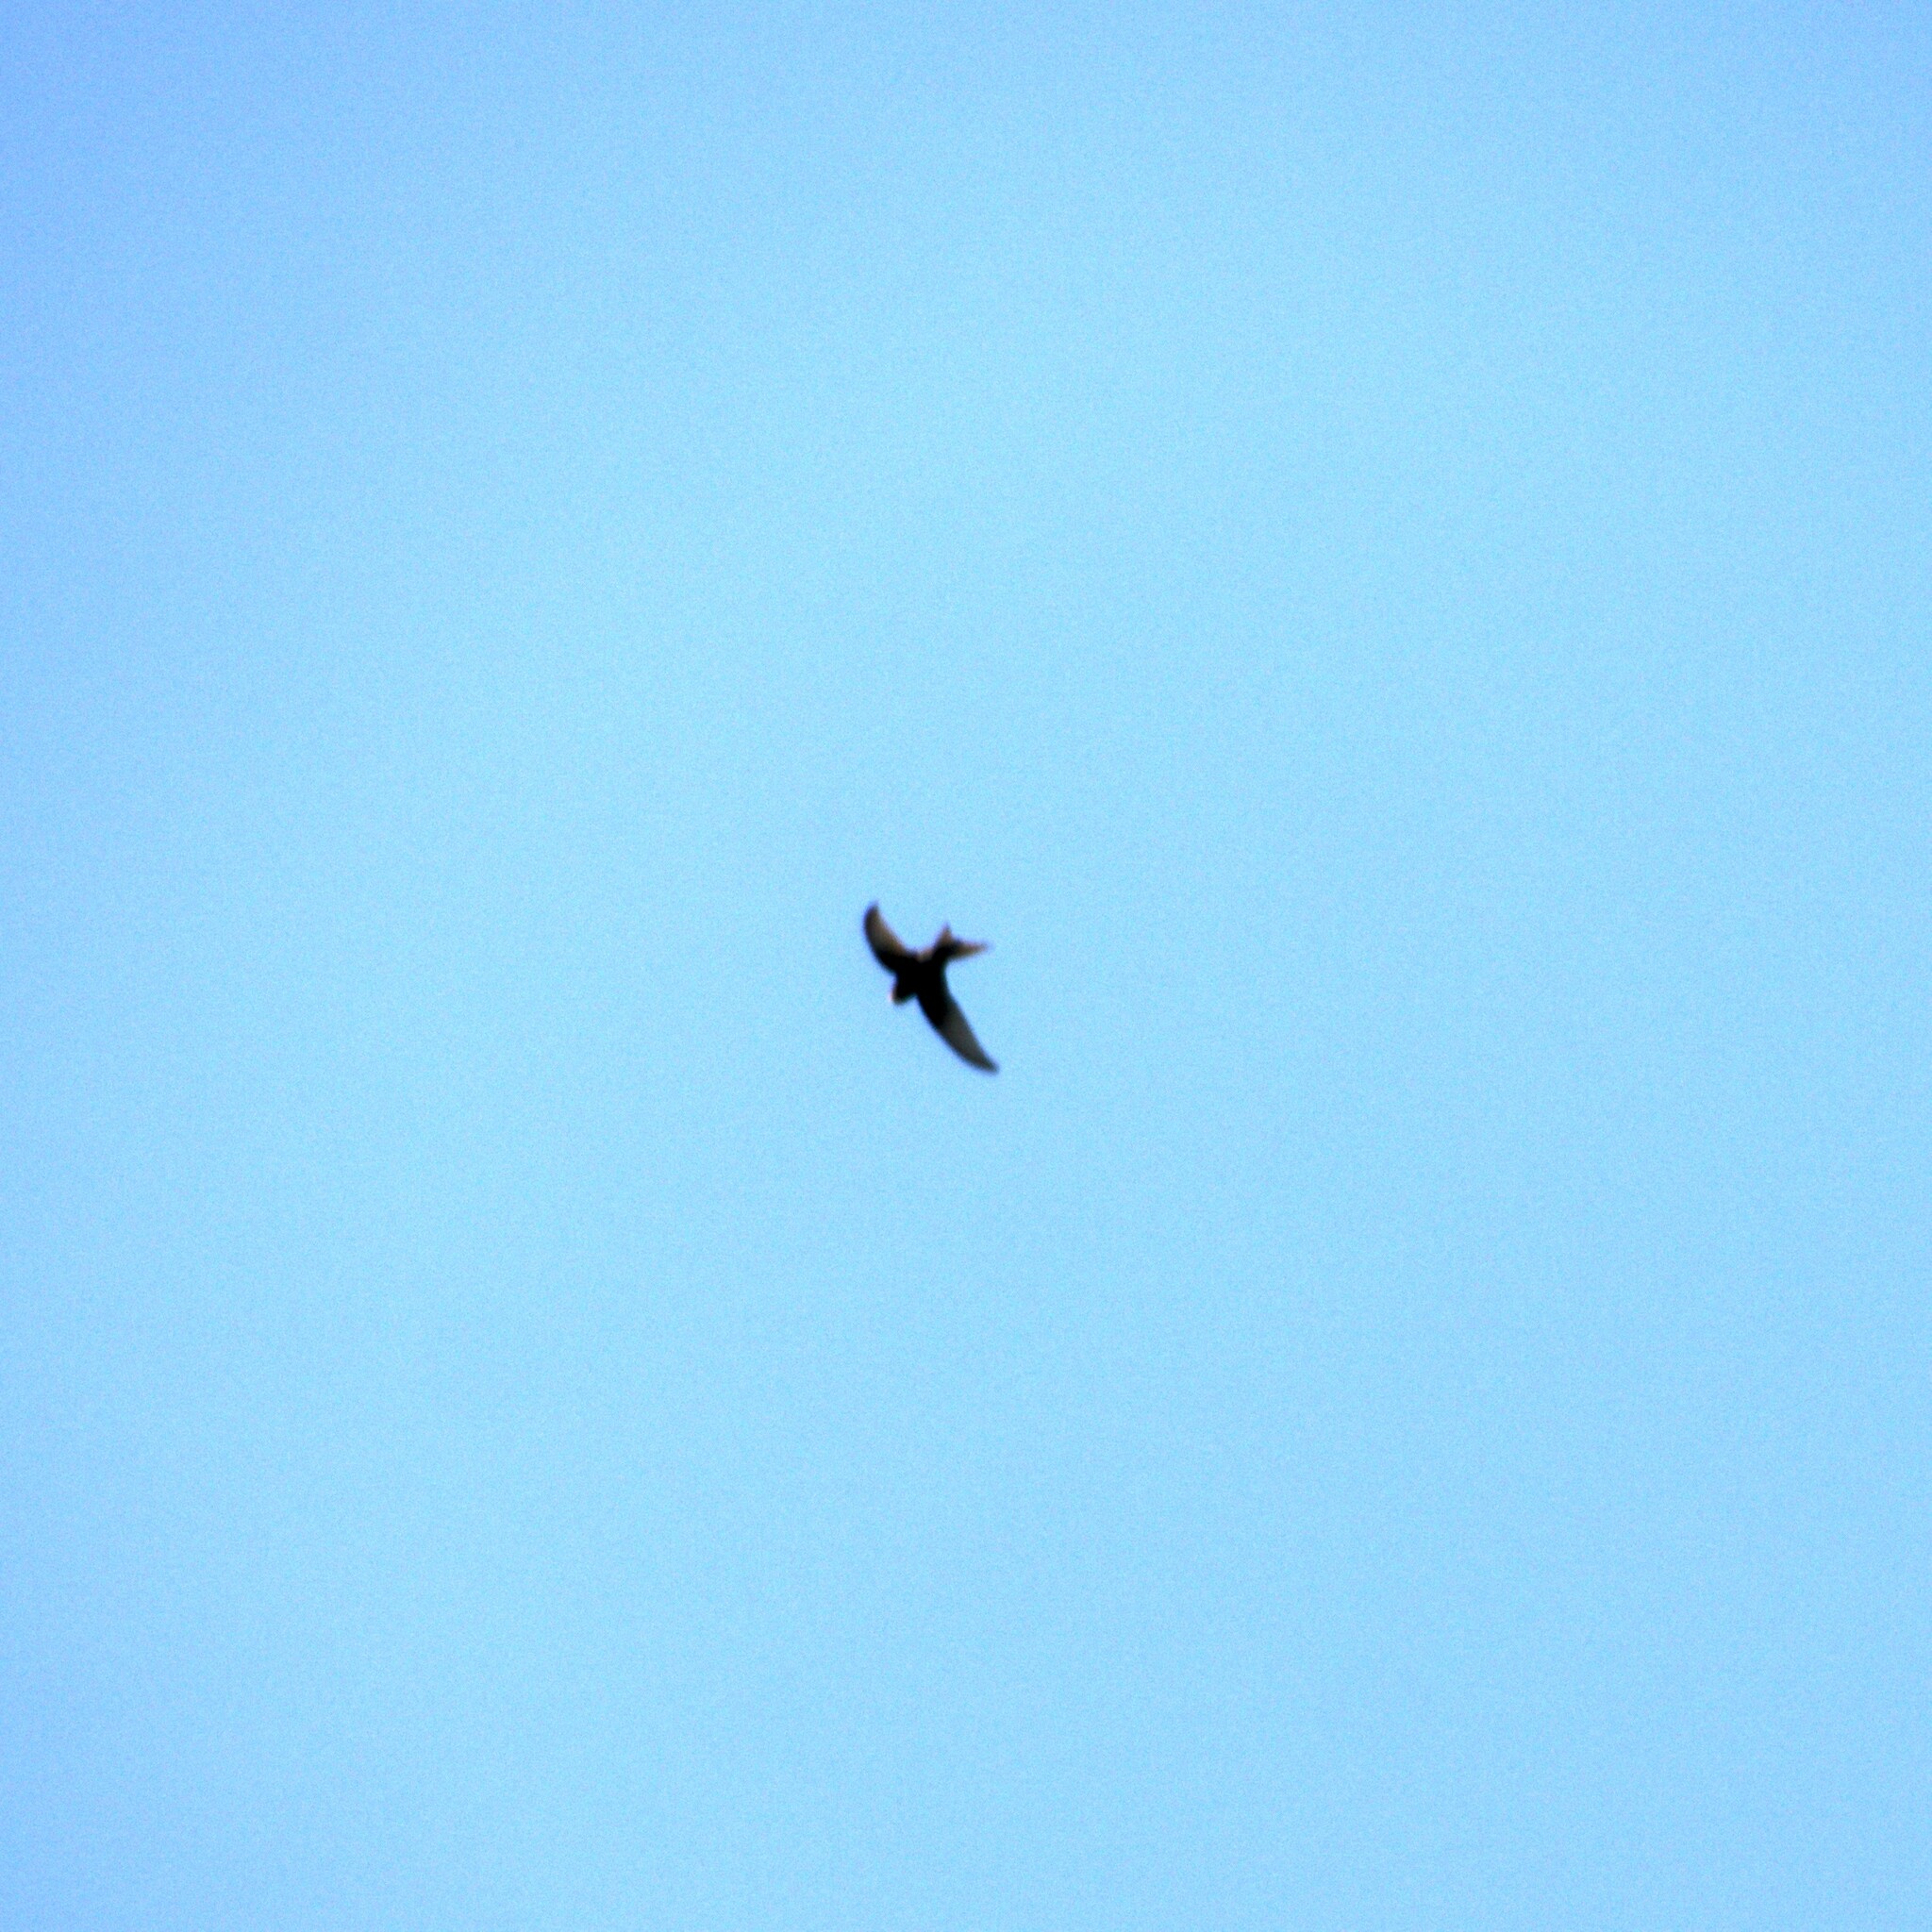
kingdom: Animalia
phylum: Chordata
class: Aves
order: Apodiformes
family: Apodidae
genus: Apus
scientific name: Apus apus
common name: Common swift
